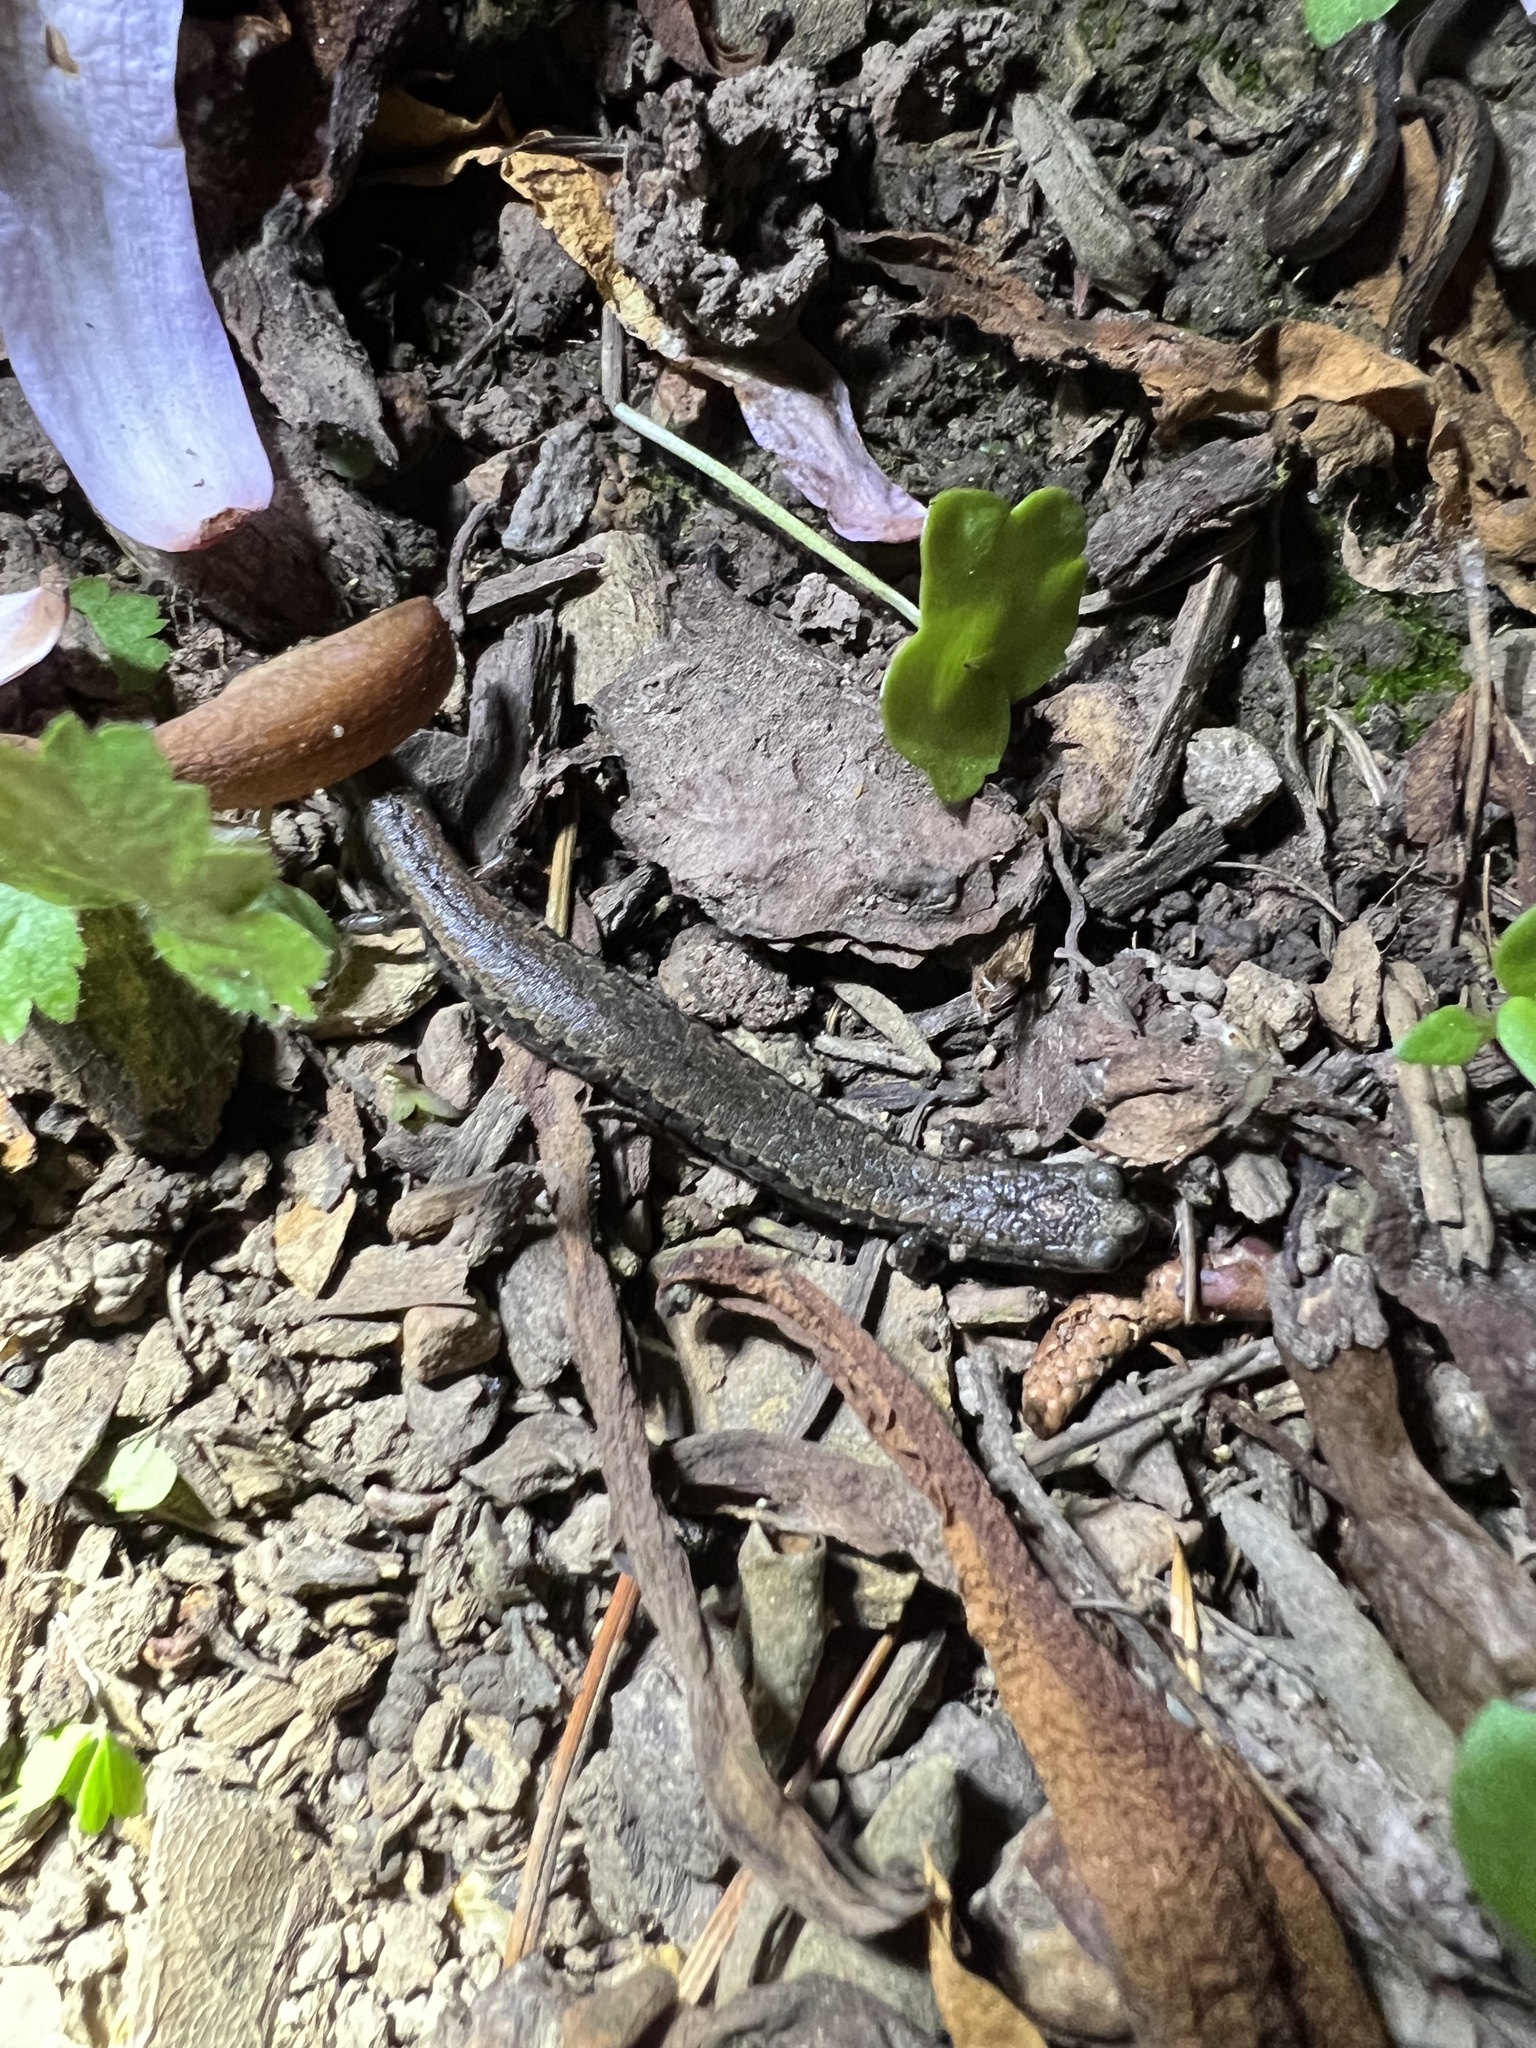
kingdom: Animalia
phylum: Chordata
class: Amphibia
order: Caudata
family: Plethodontidae
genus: Batrachoseps
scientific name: Batrachoseps attenuatus
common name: California slender salamander
